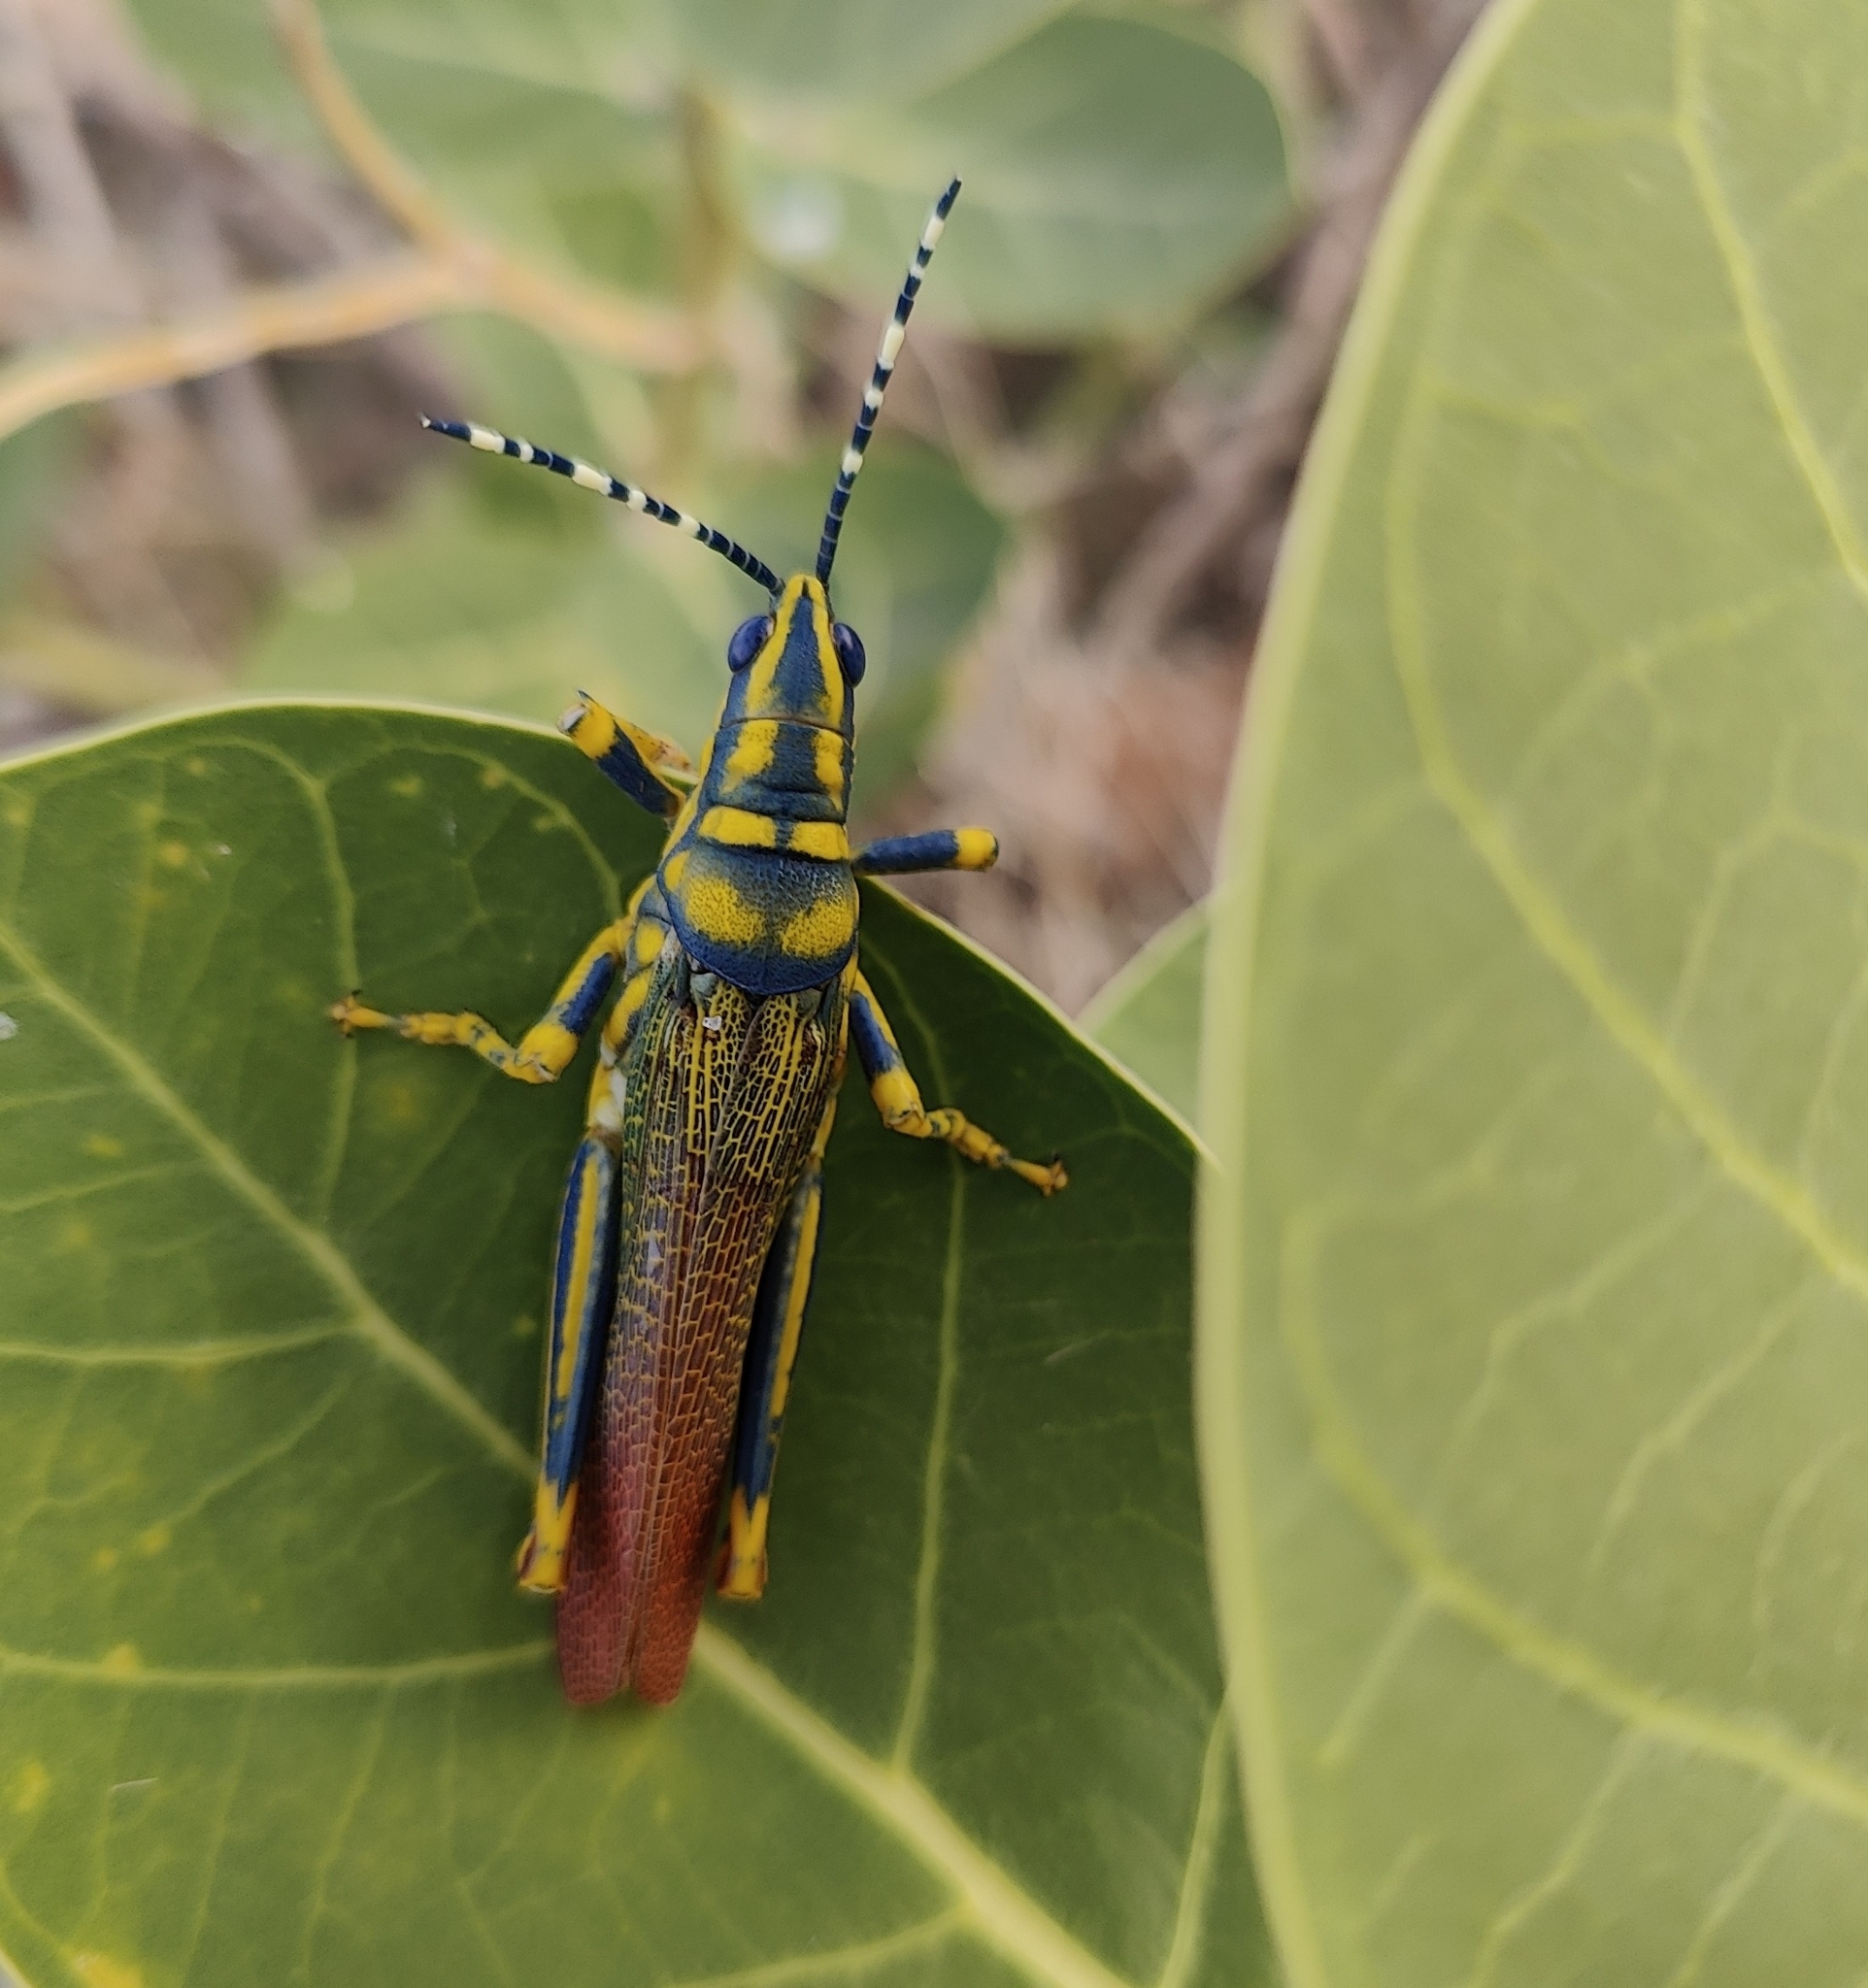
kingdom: Animalia
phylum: Arthropoda
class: Insecta
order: Orthoptera
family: Pyrgomorphidae
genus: Poekilocerus
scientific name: Poekilocerus pictus
